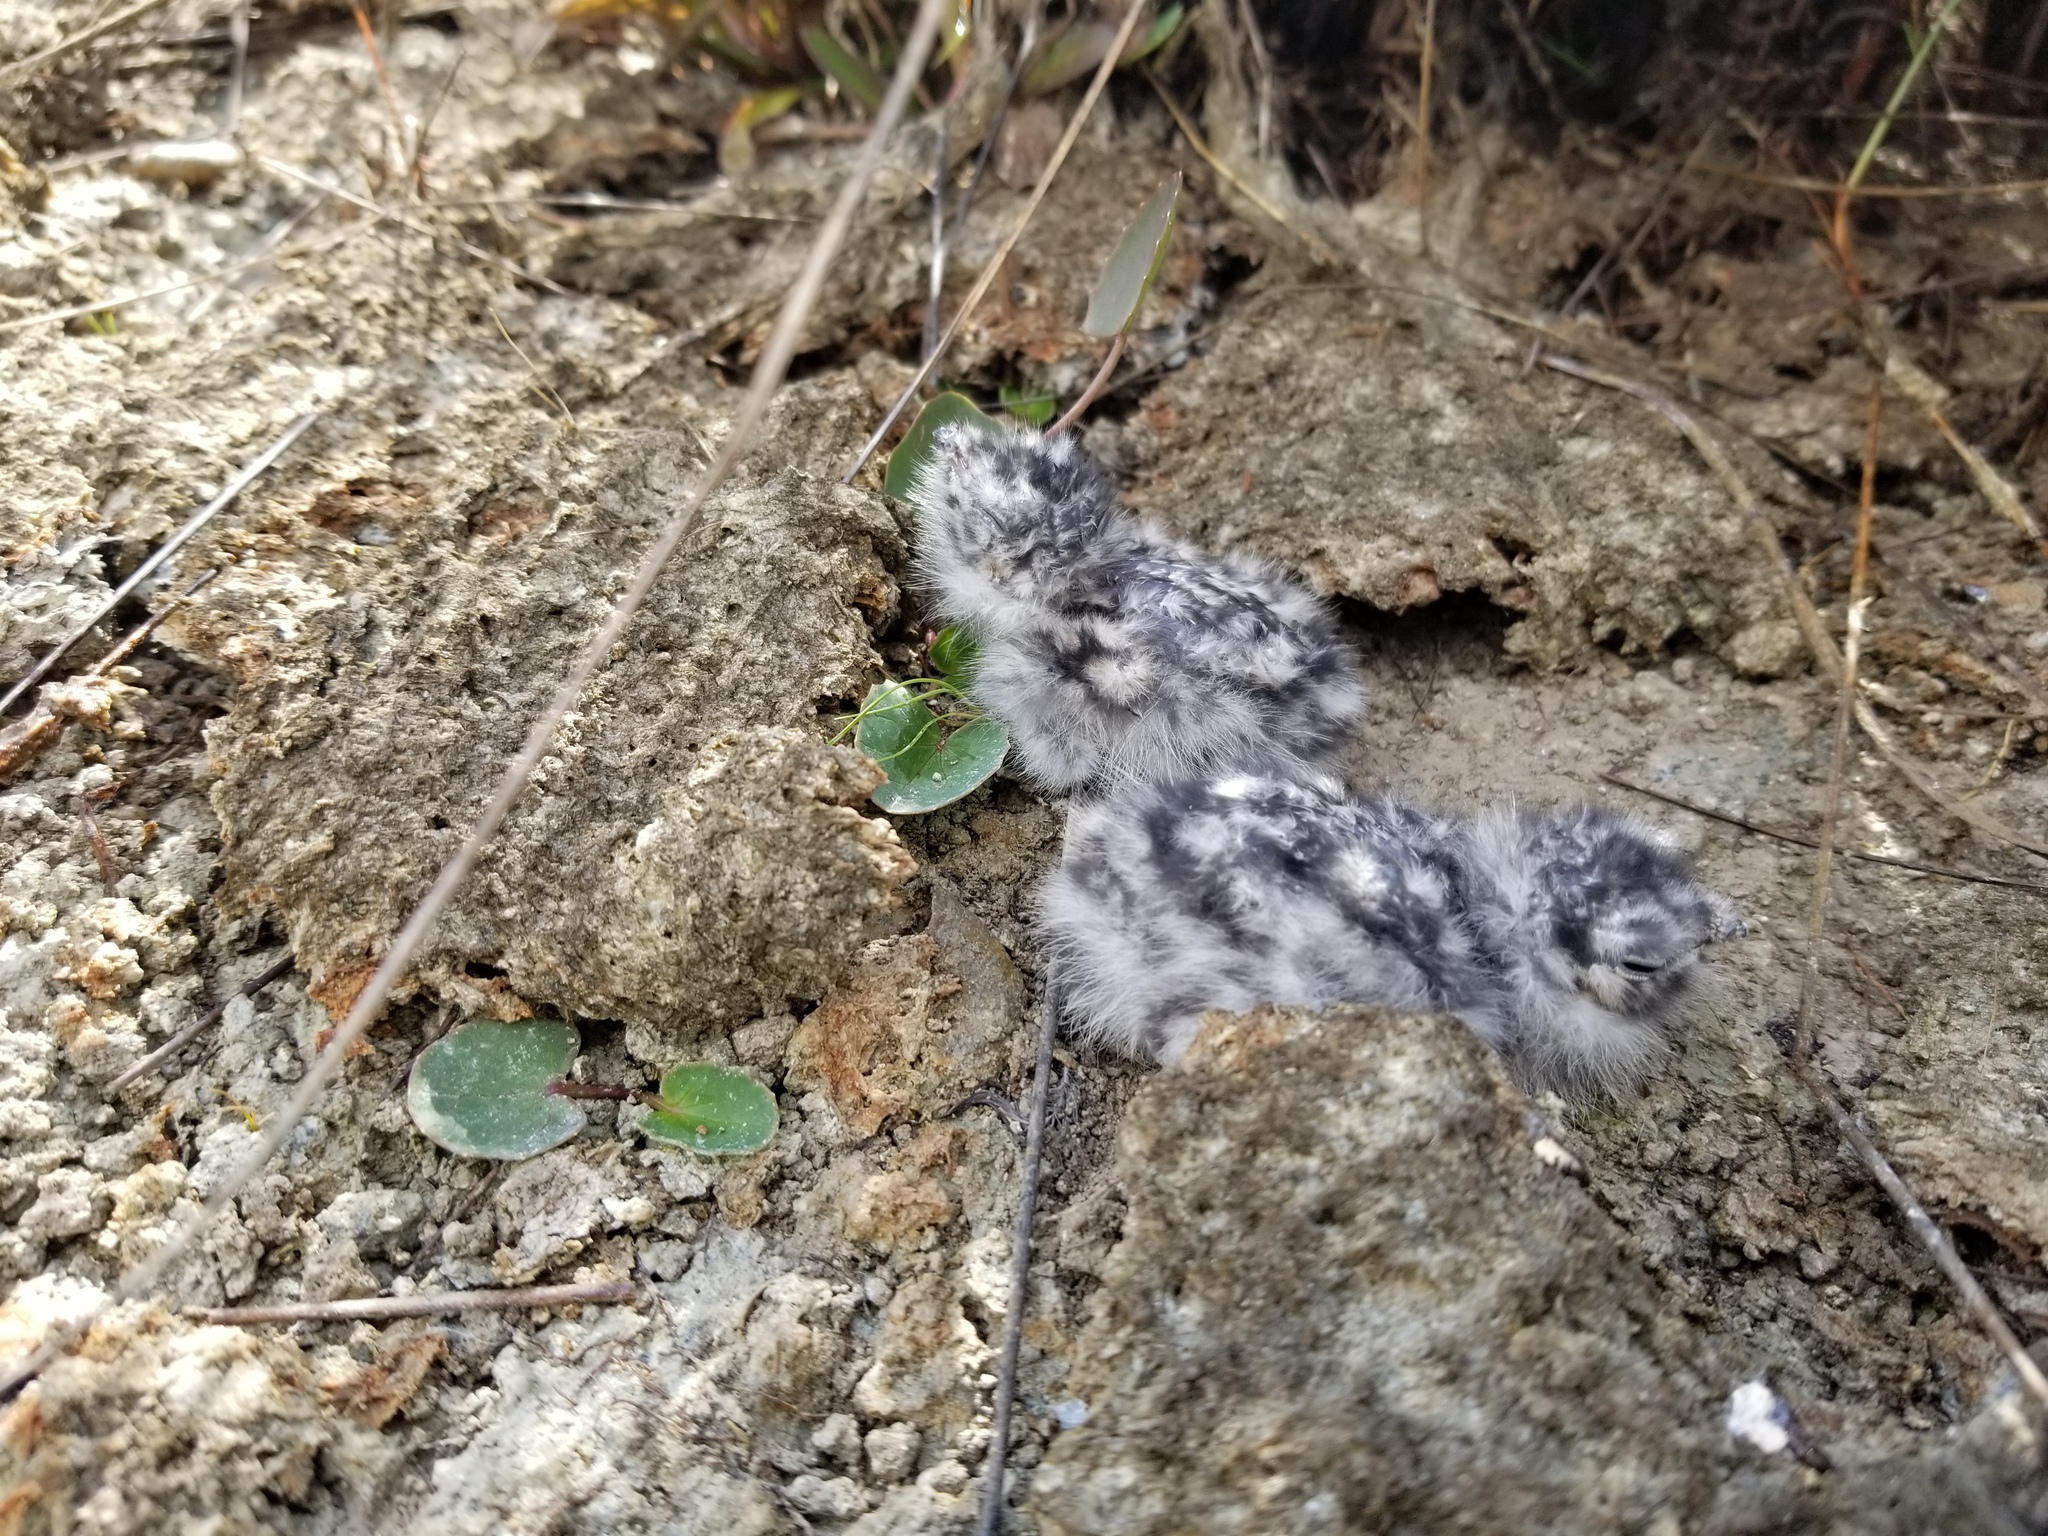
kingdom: Animalia
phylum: Chordata
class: Aves
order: Caprimulgiformes
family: Caprimulgidae
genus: Chordeiles
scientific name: Chordeiles minor
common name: Common nighthawk
